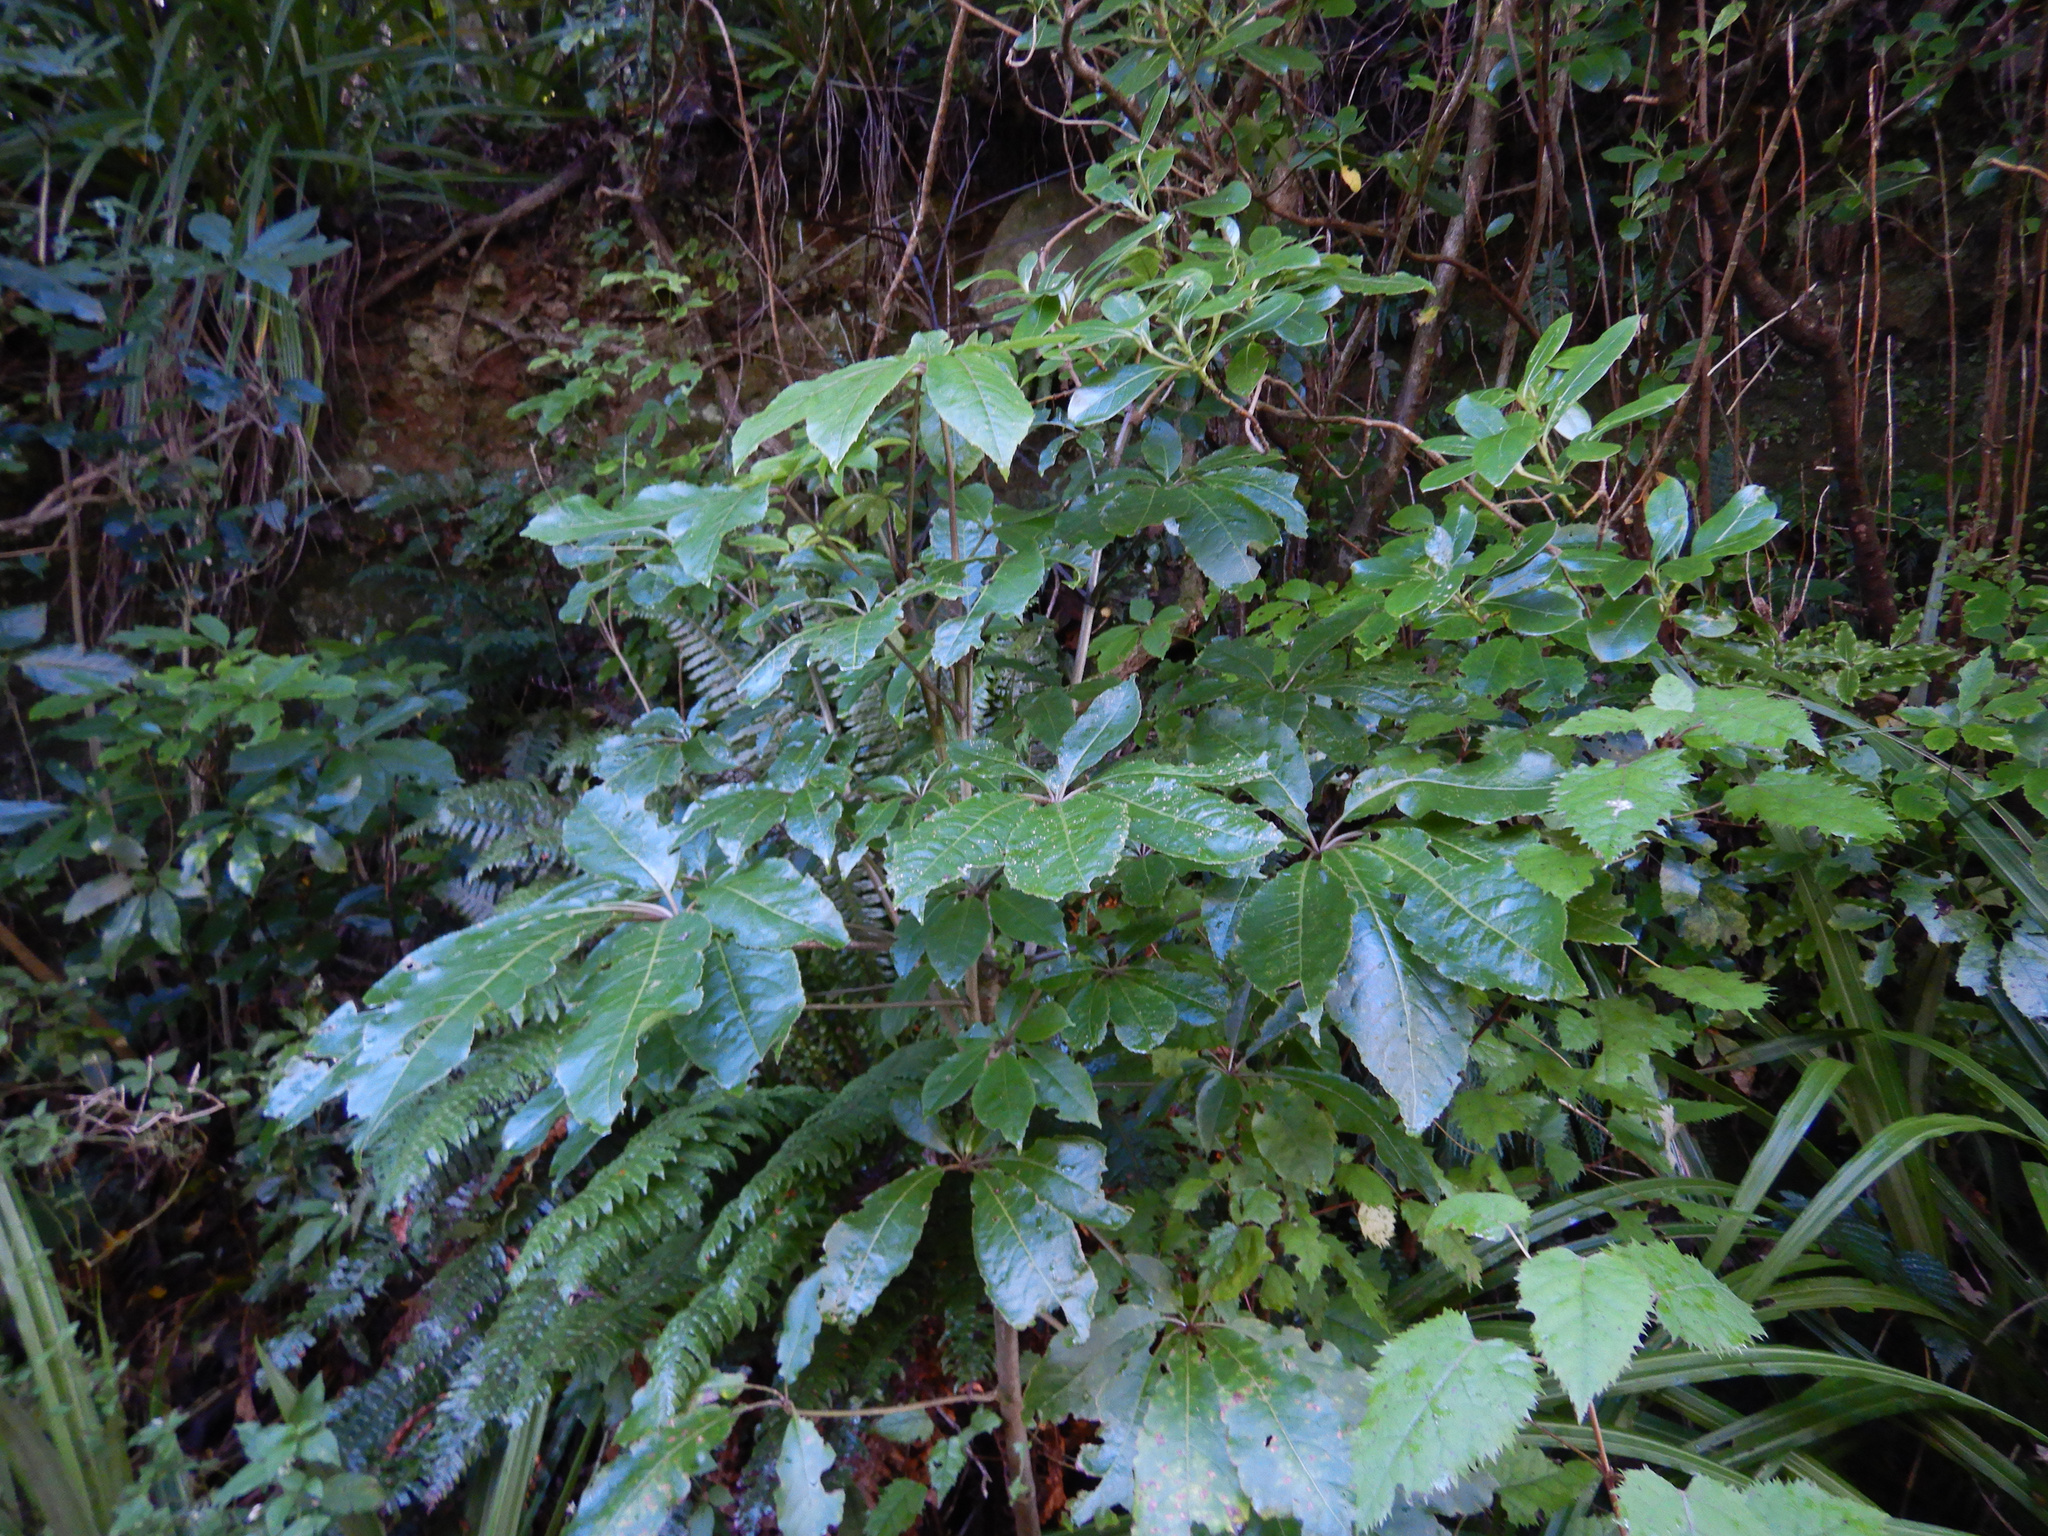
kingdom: Plantae
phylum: Tracheophyta
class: Magnoliopsida
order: Apiales
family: Araliaceae
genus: Schefflera
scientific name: Schefflera digitata
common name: Pate
